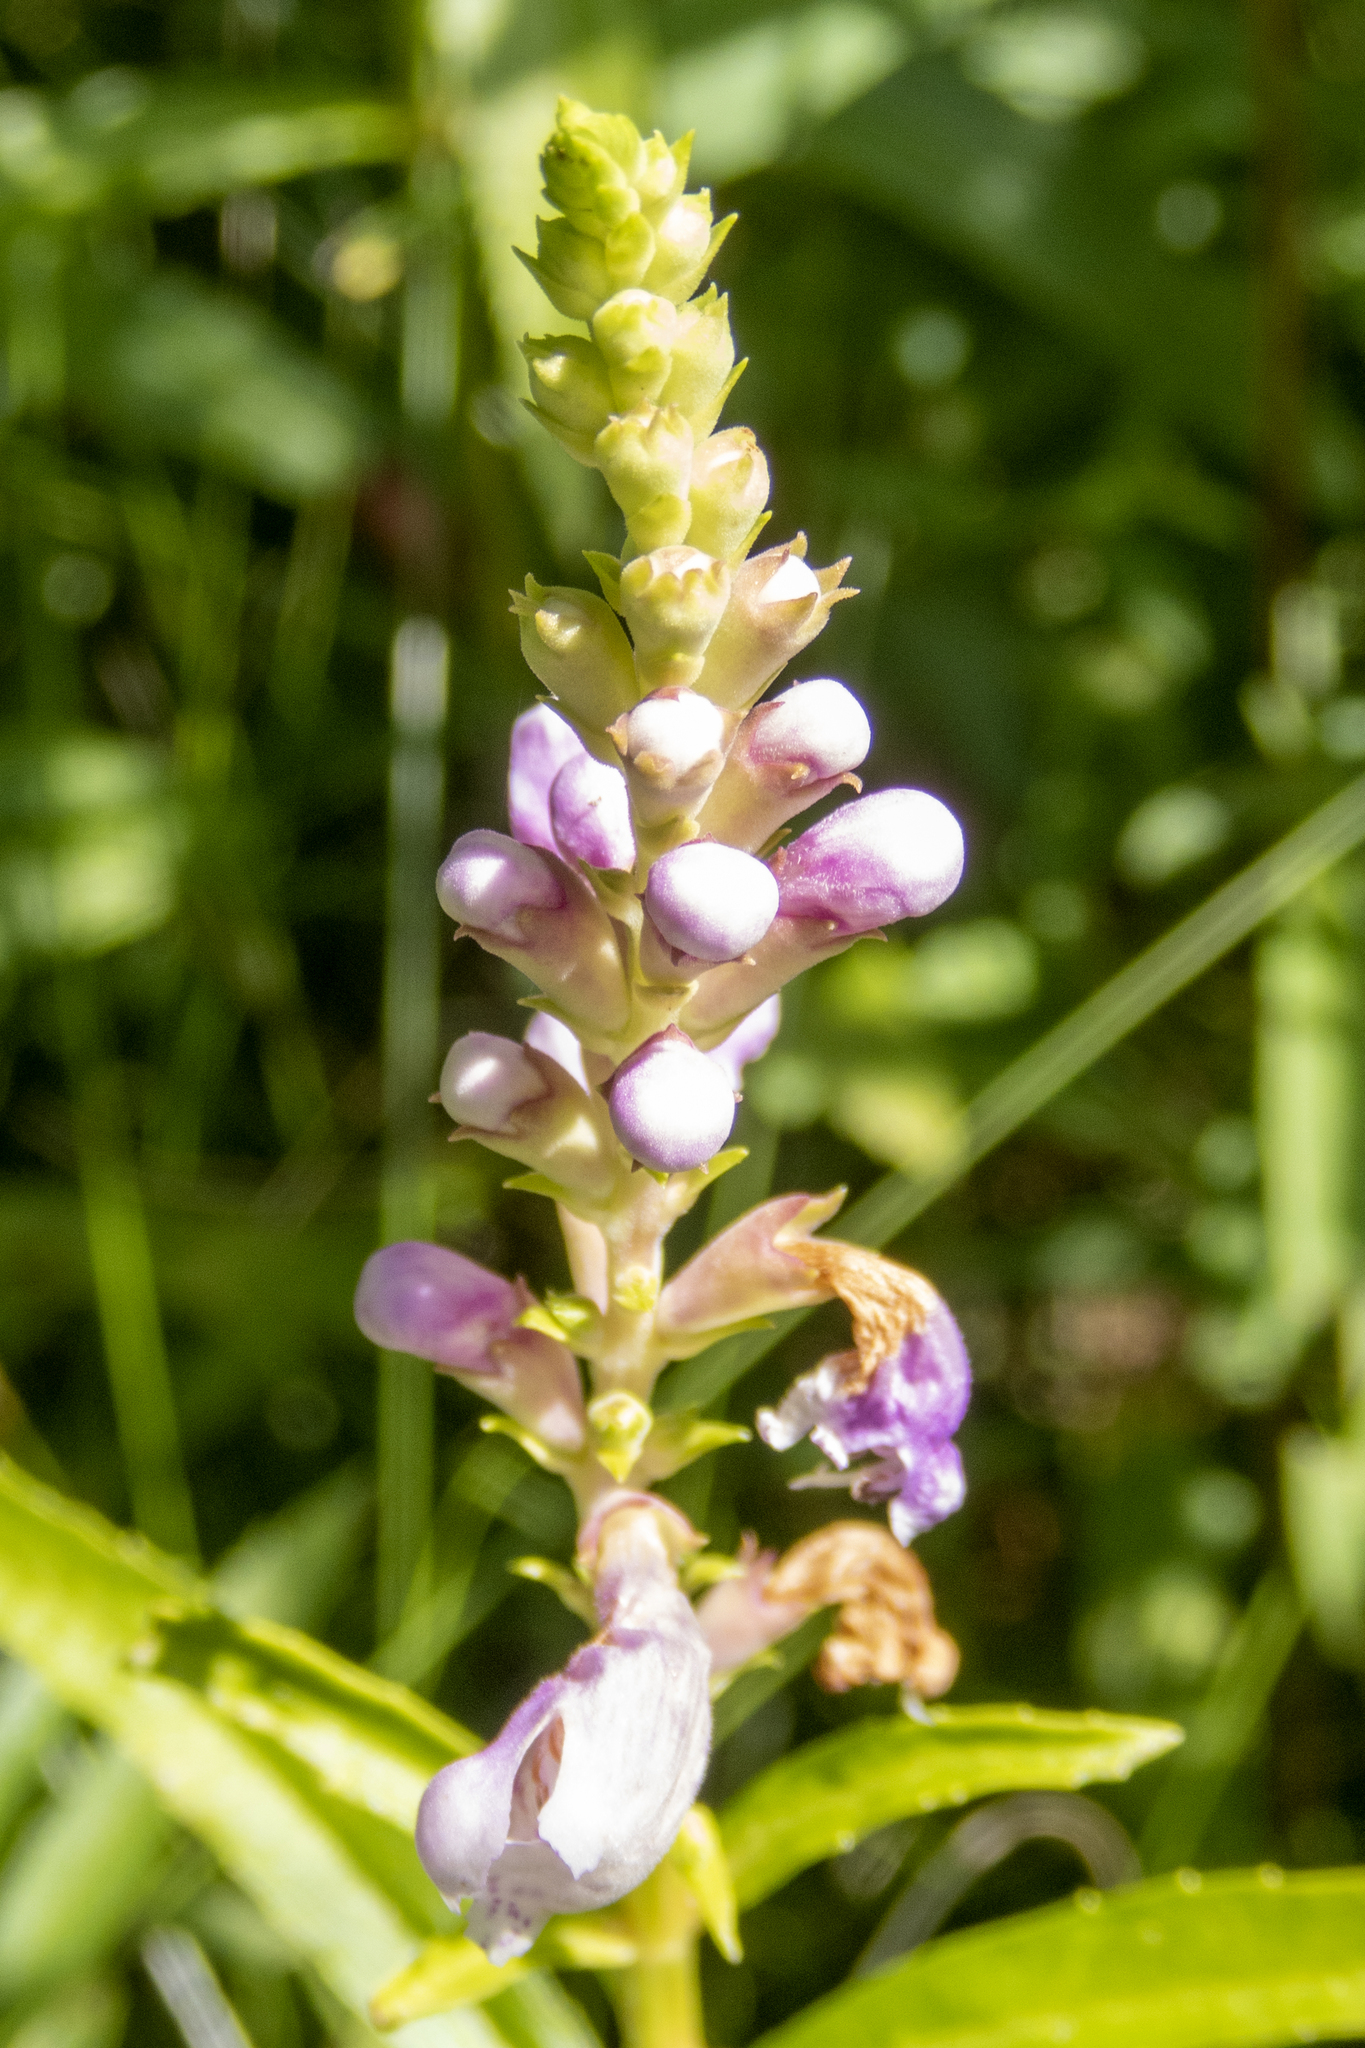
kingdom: Plantae
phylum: Tracheophyta
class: Magnoliopsida
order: Lamiales
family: Lamiaceae
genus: Physostegia
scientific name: Physostegia virginiana
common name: Obedient-plant
